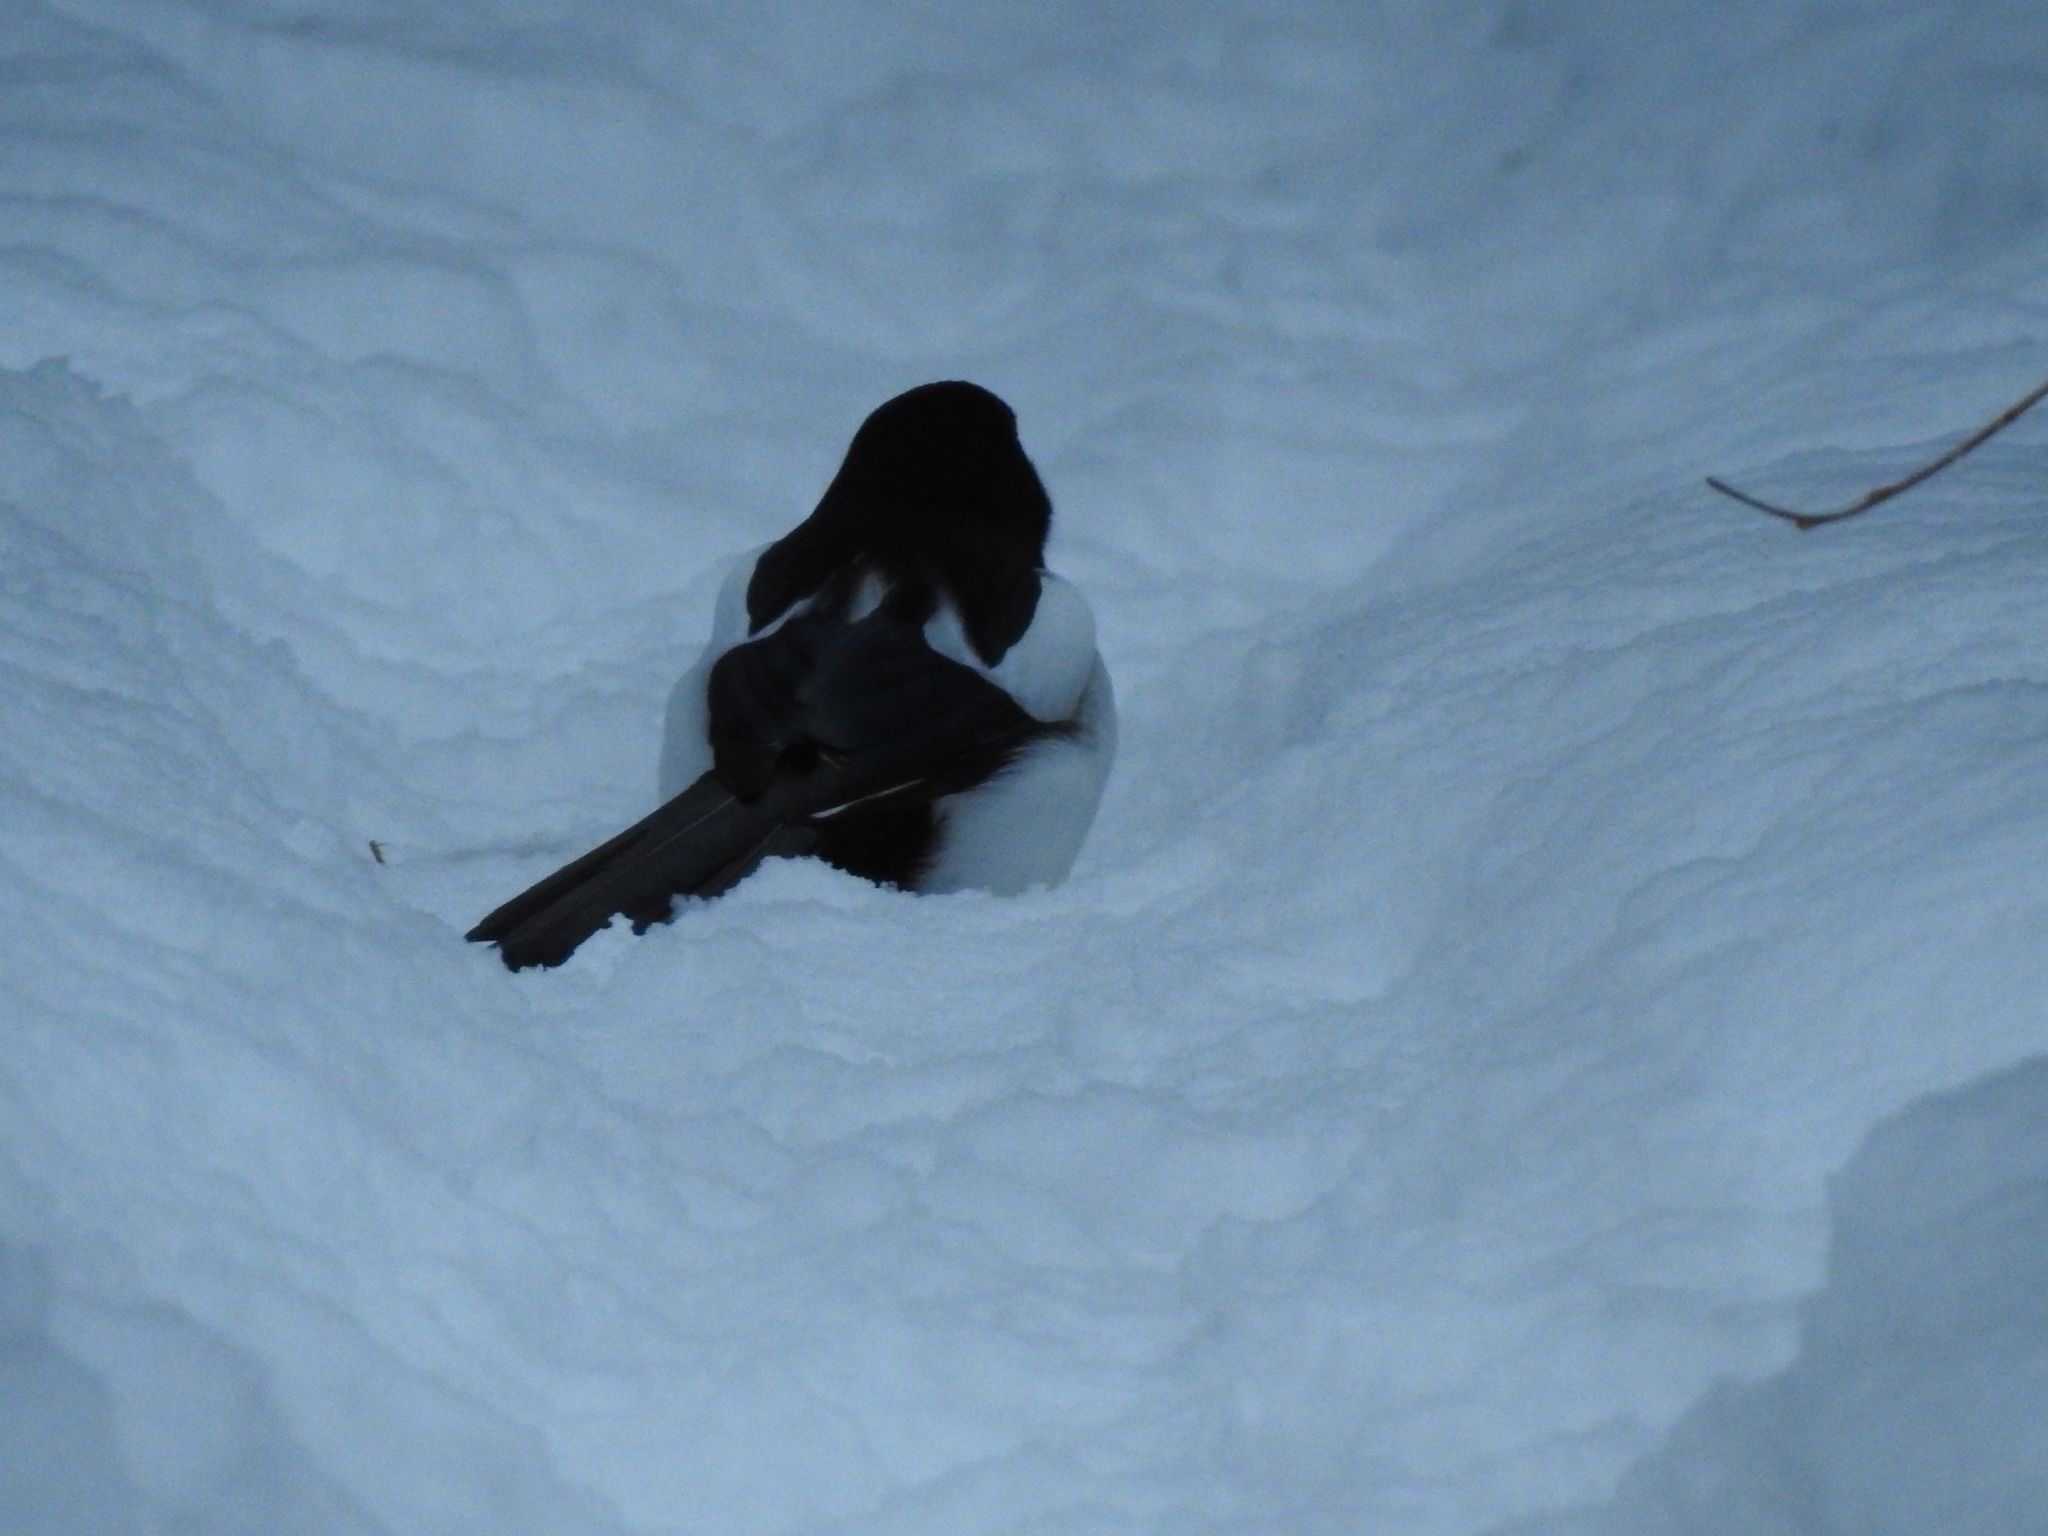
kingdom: Animalia
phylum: Chordata
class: Aves
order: Passeriformes
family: Corvidae
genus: Pica
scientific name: Pica pica
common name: Eurasian magpie
